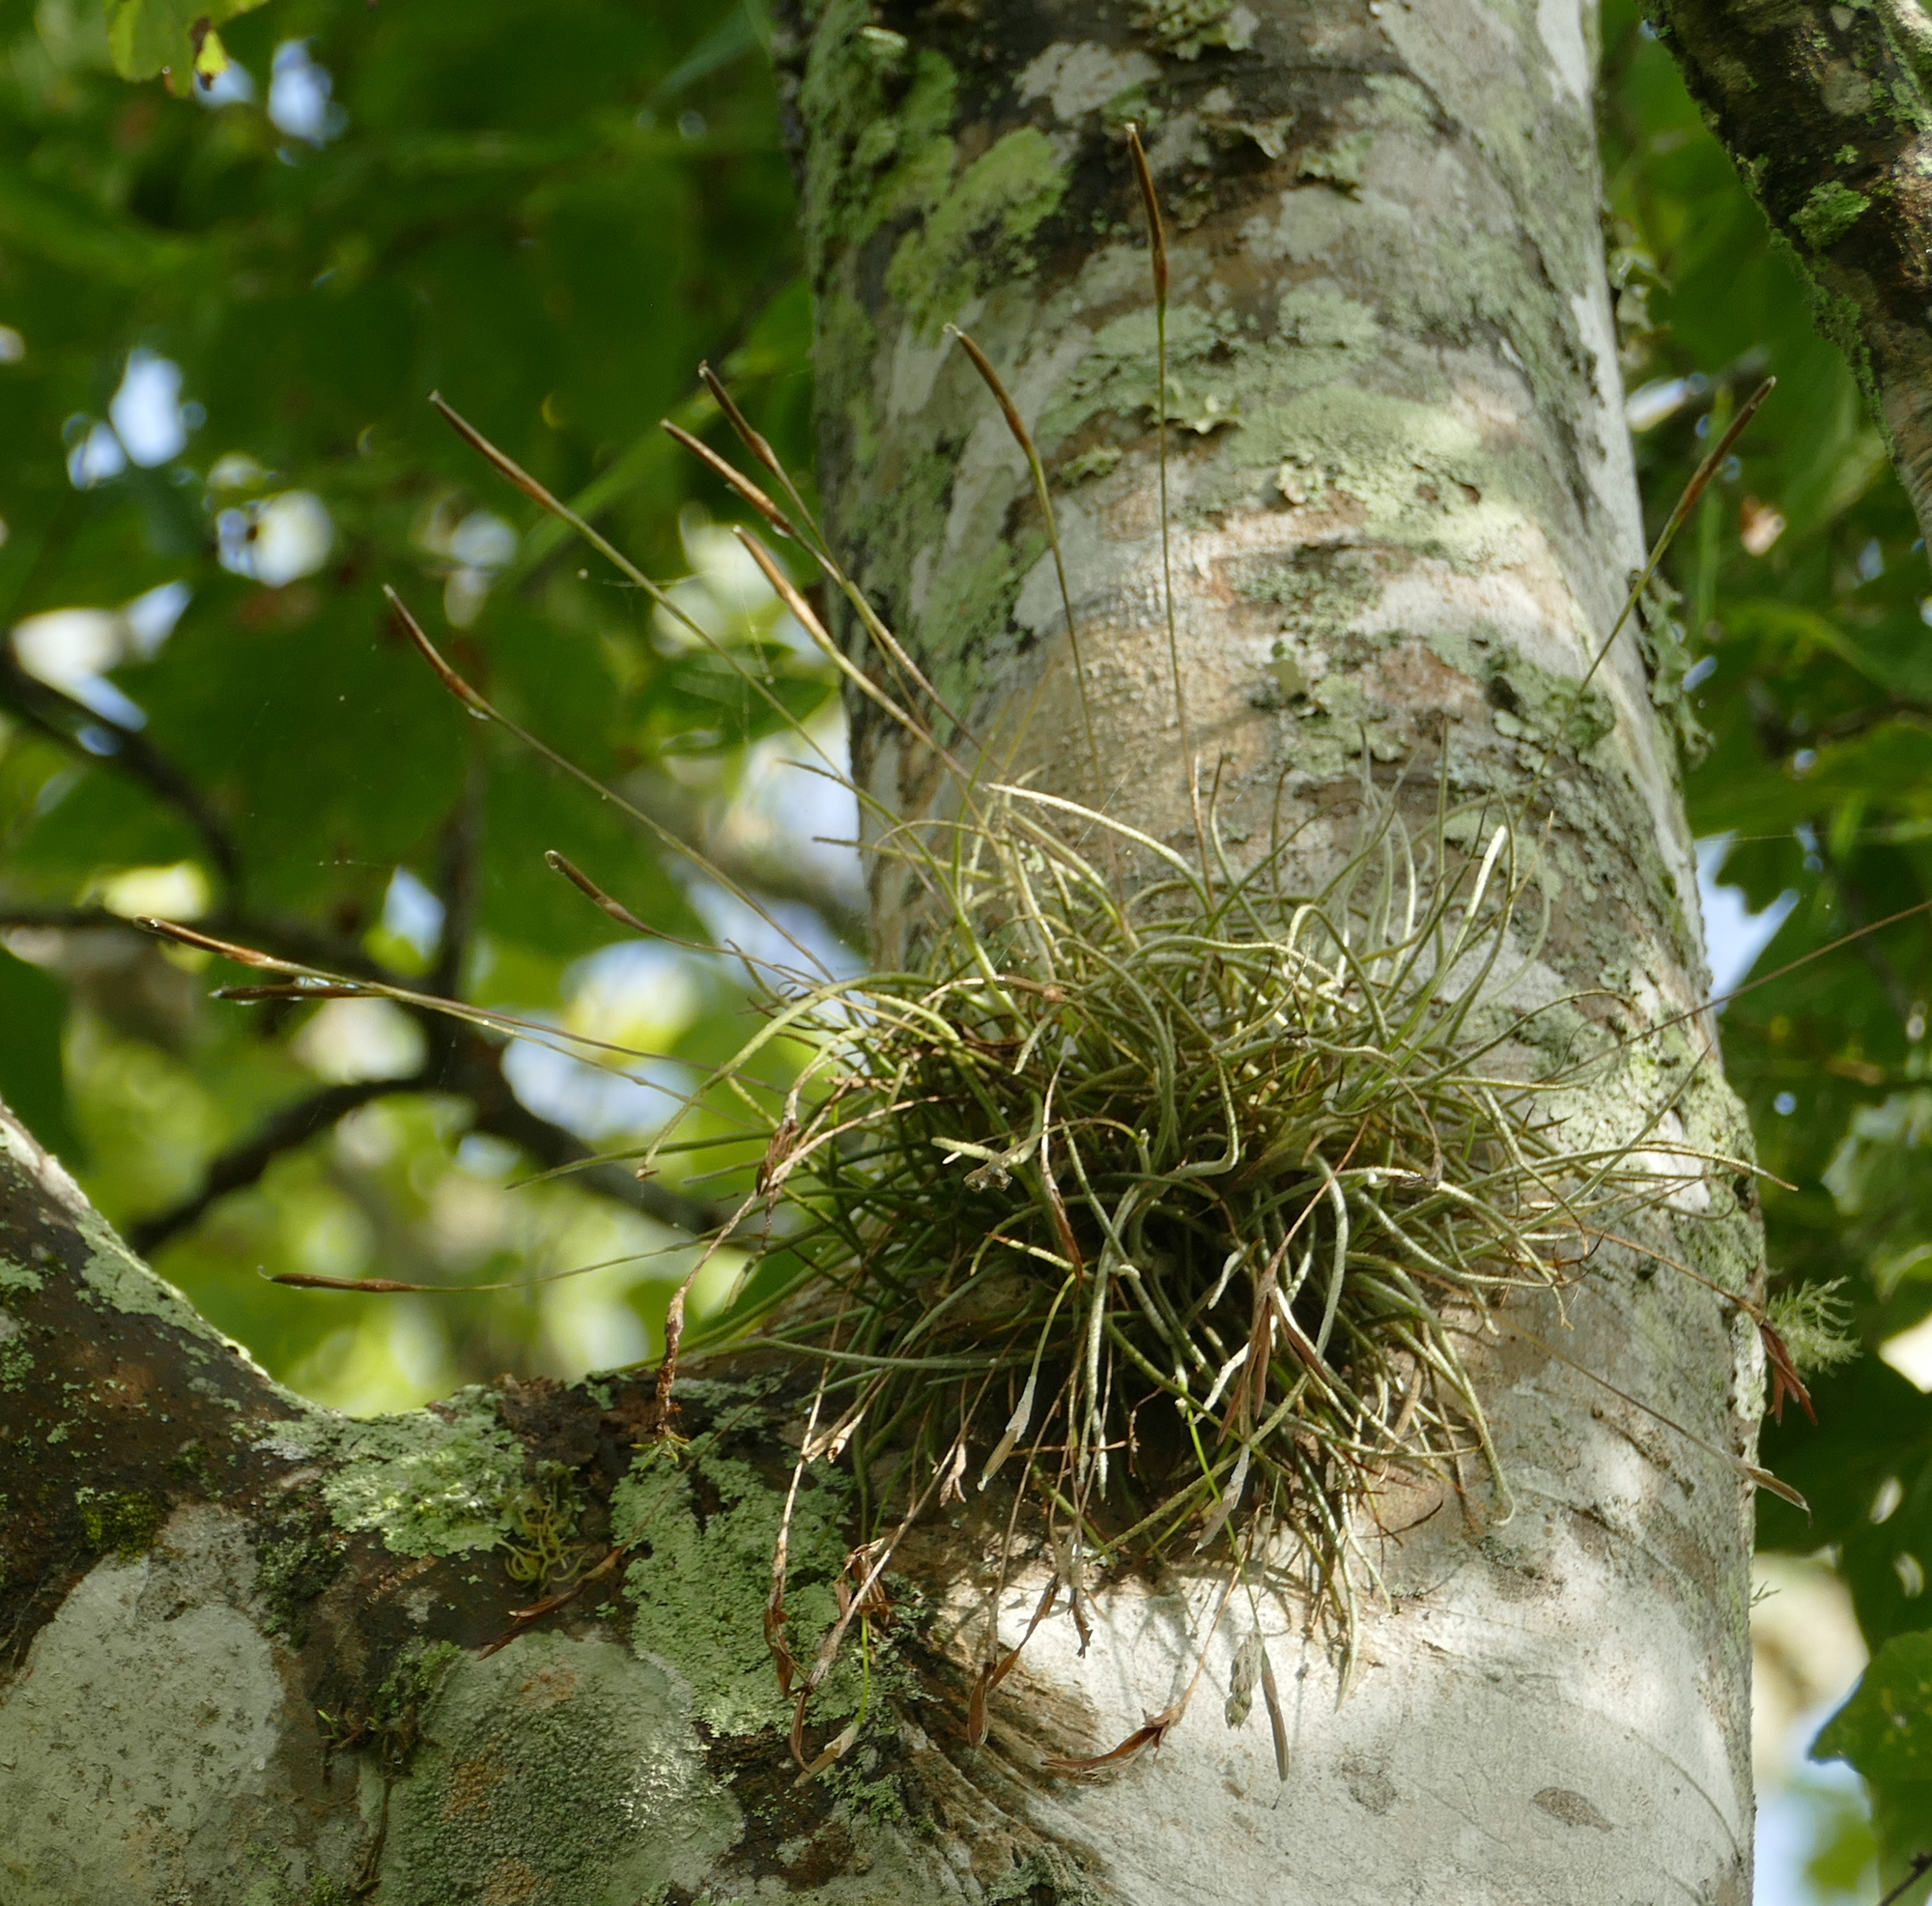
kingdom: Plantae
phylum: Tracheophyta
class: Liliopsida
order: Poales
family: Bromeliaceae
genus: Tillandsia
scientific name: Tillandsia recurvata
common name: Small ballmoss
